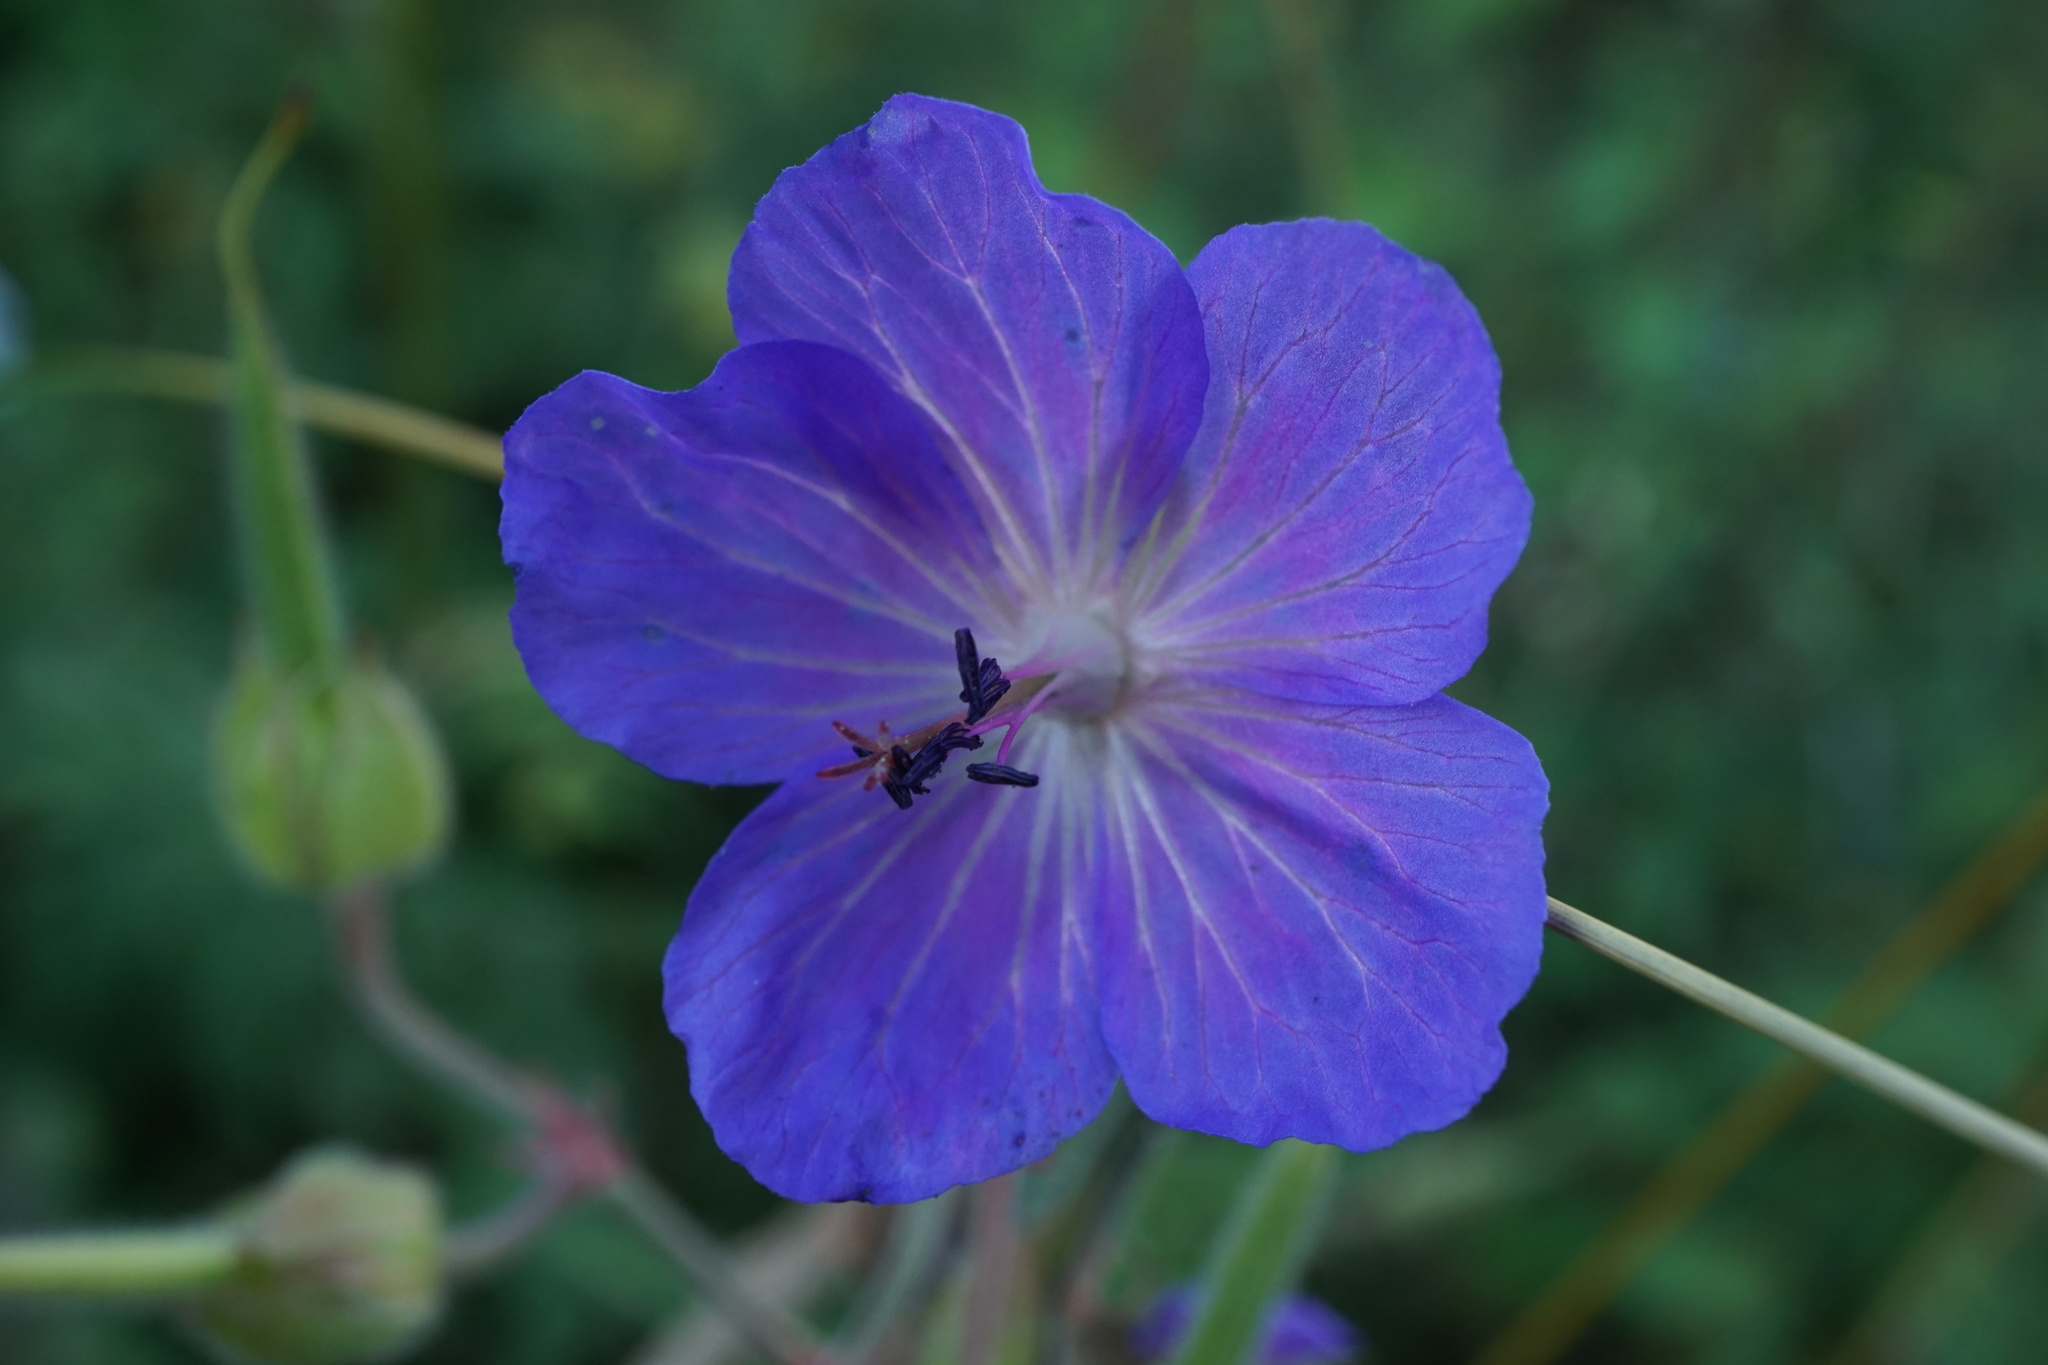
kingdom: Plantae
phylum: Tracheophyta
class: Magnoliopsida
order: Geraniales
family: Geraniaceae
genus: Geranium
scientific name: Geranium pratense
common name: Meadow crane's-bill
